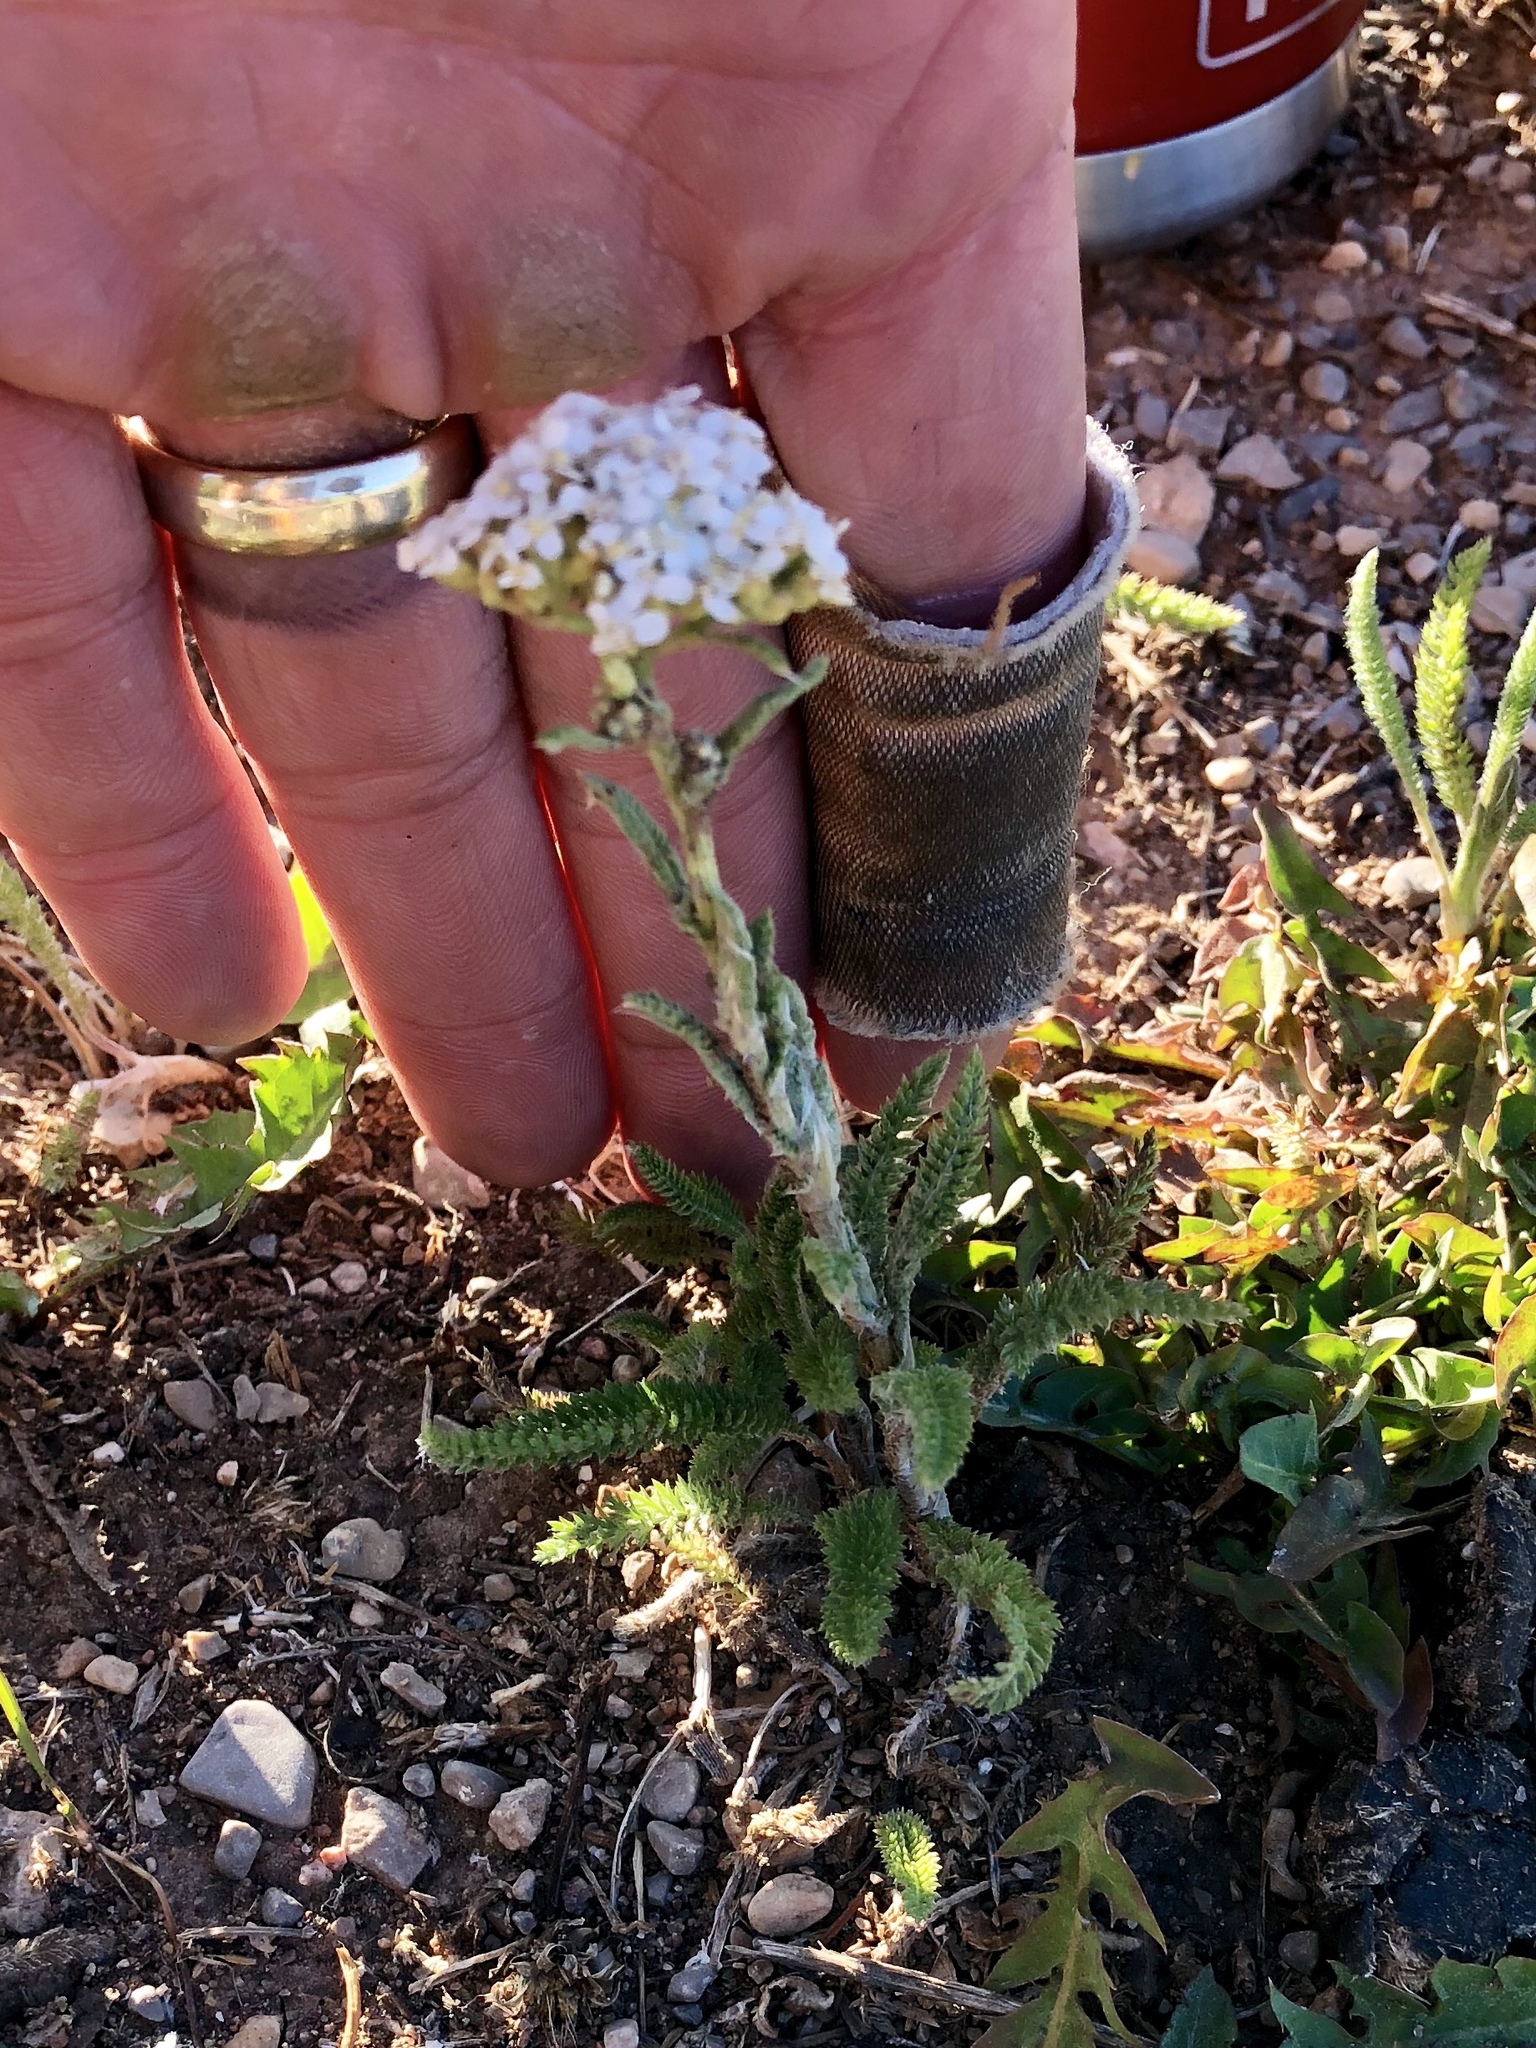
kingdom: Plantae
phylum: Tracheophyta
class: Magnoliopsida
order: Asterales
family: Asteraceae
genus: Achillea
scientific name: Achillea millefolium
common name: Yarrow
